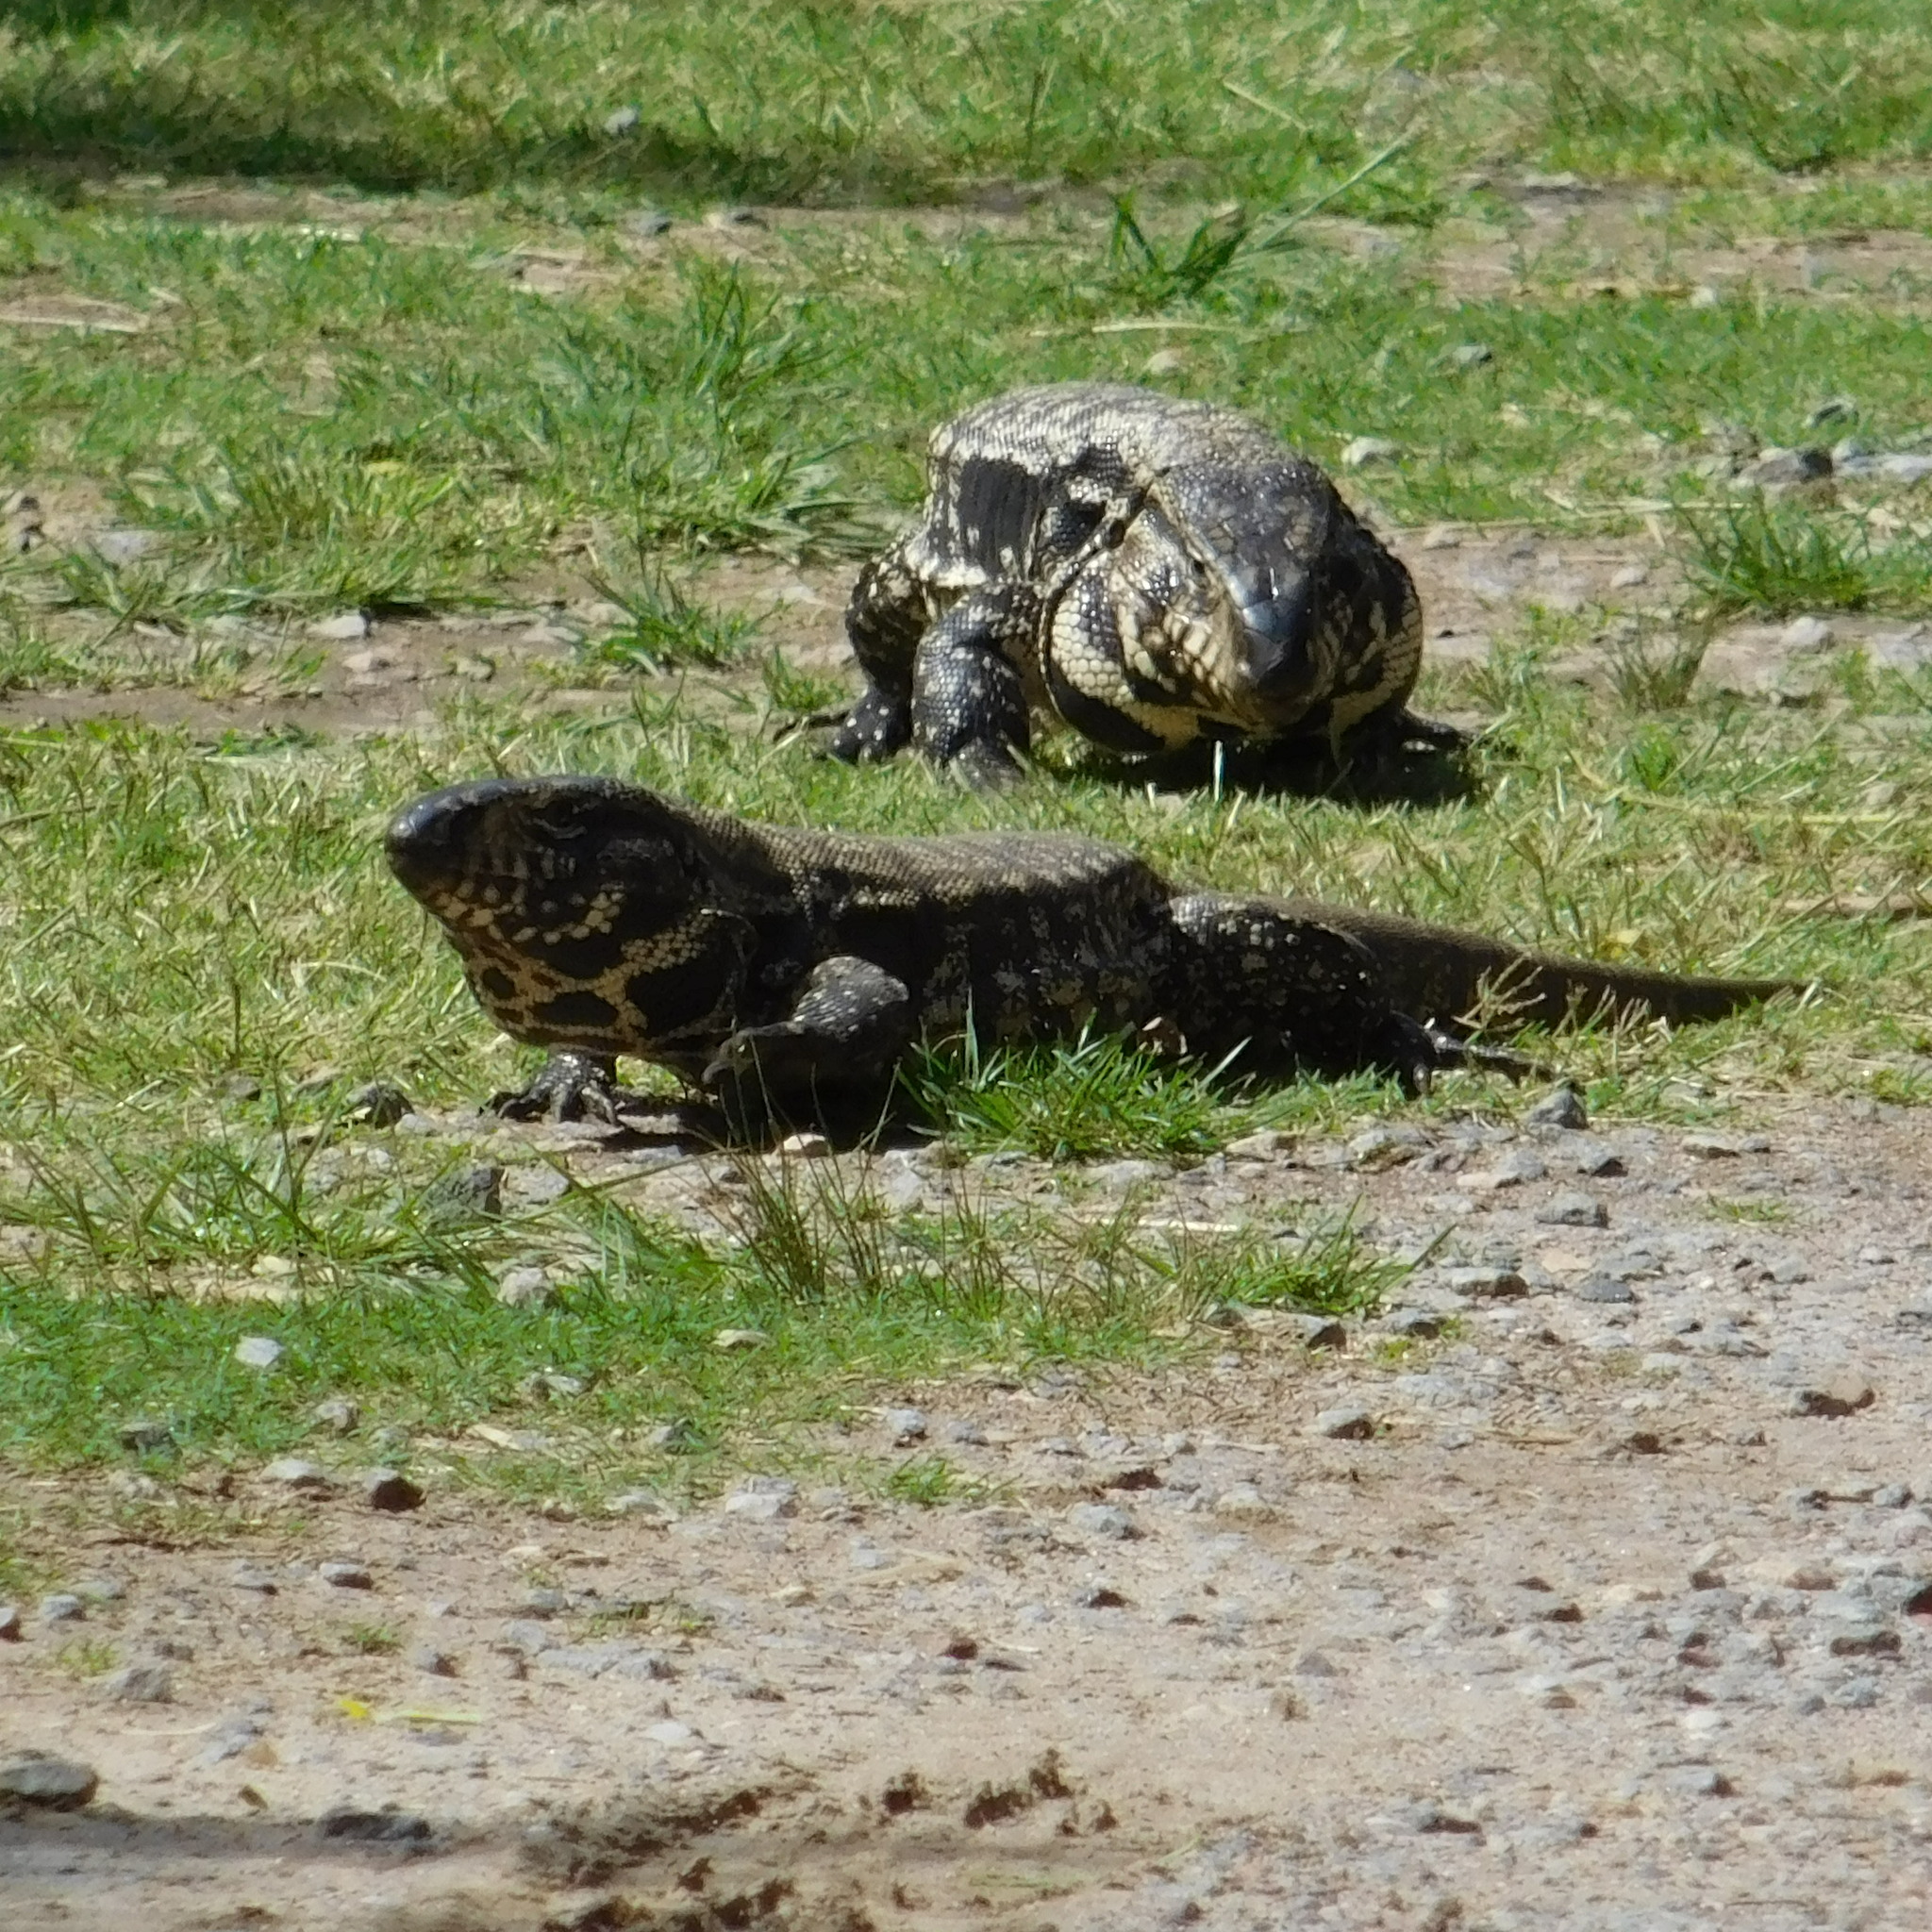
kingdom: Animalia
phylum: Chordata
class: Squamata
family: Teiidae
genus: Salvator
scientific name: Salvator merianae
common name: Argentine black and white tegu
